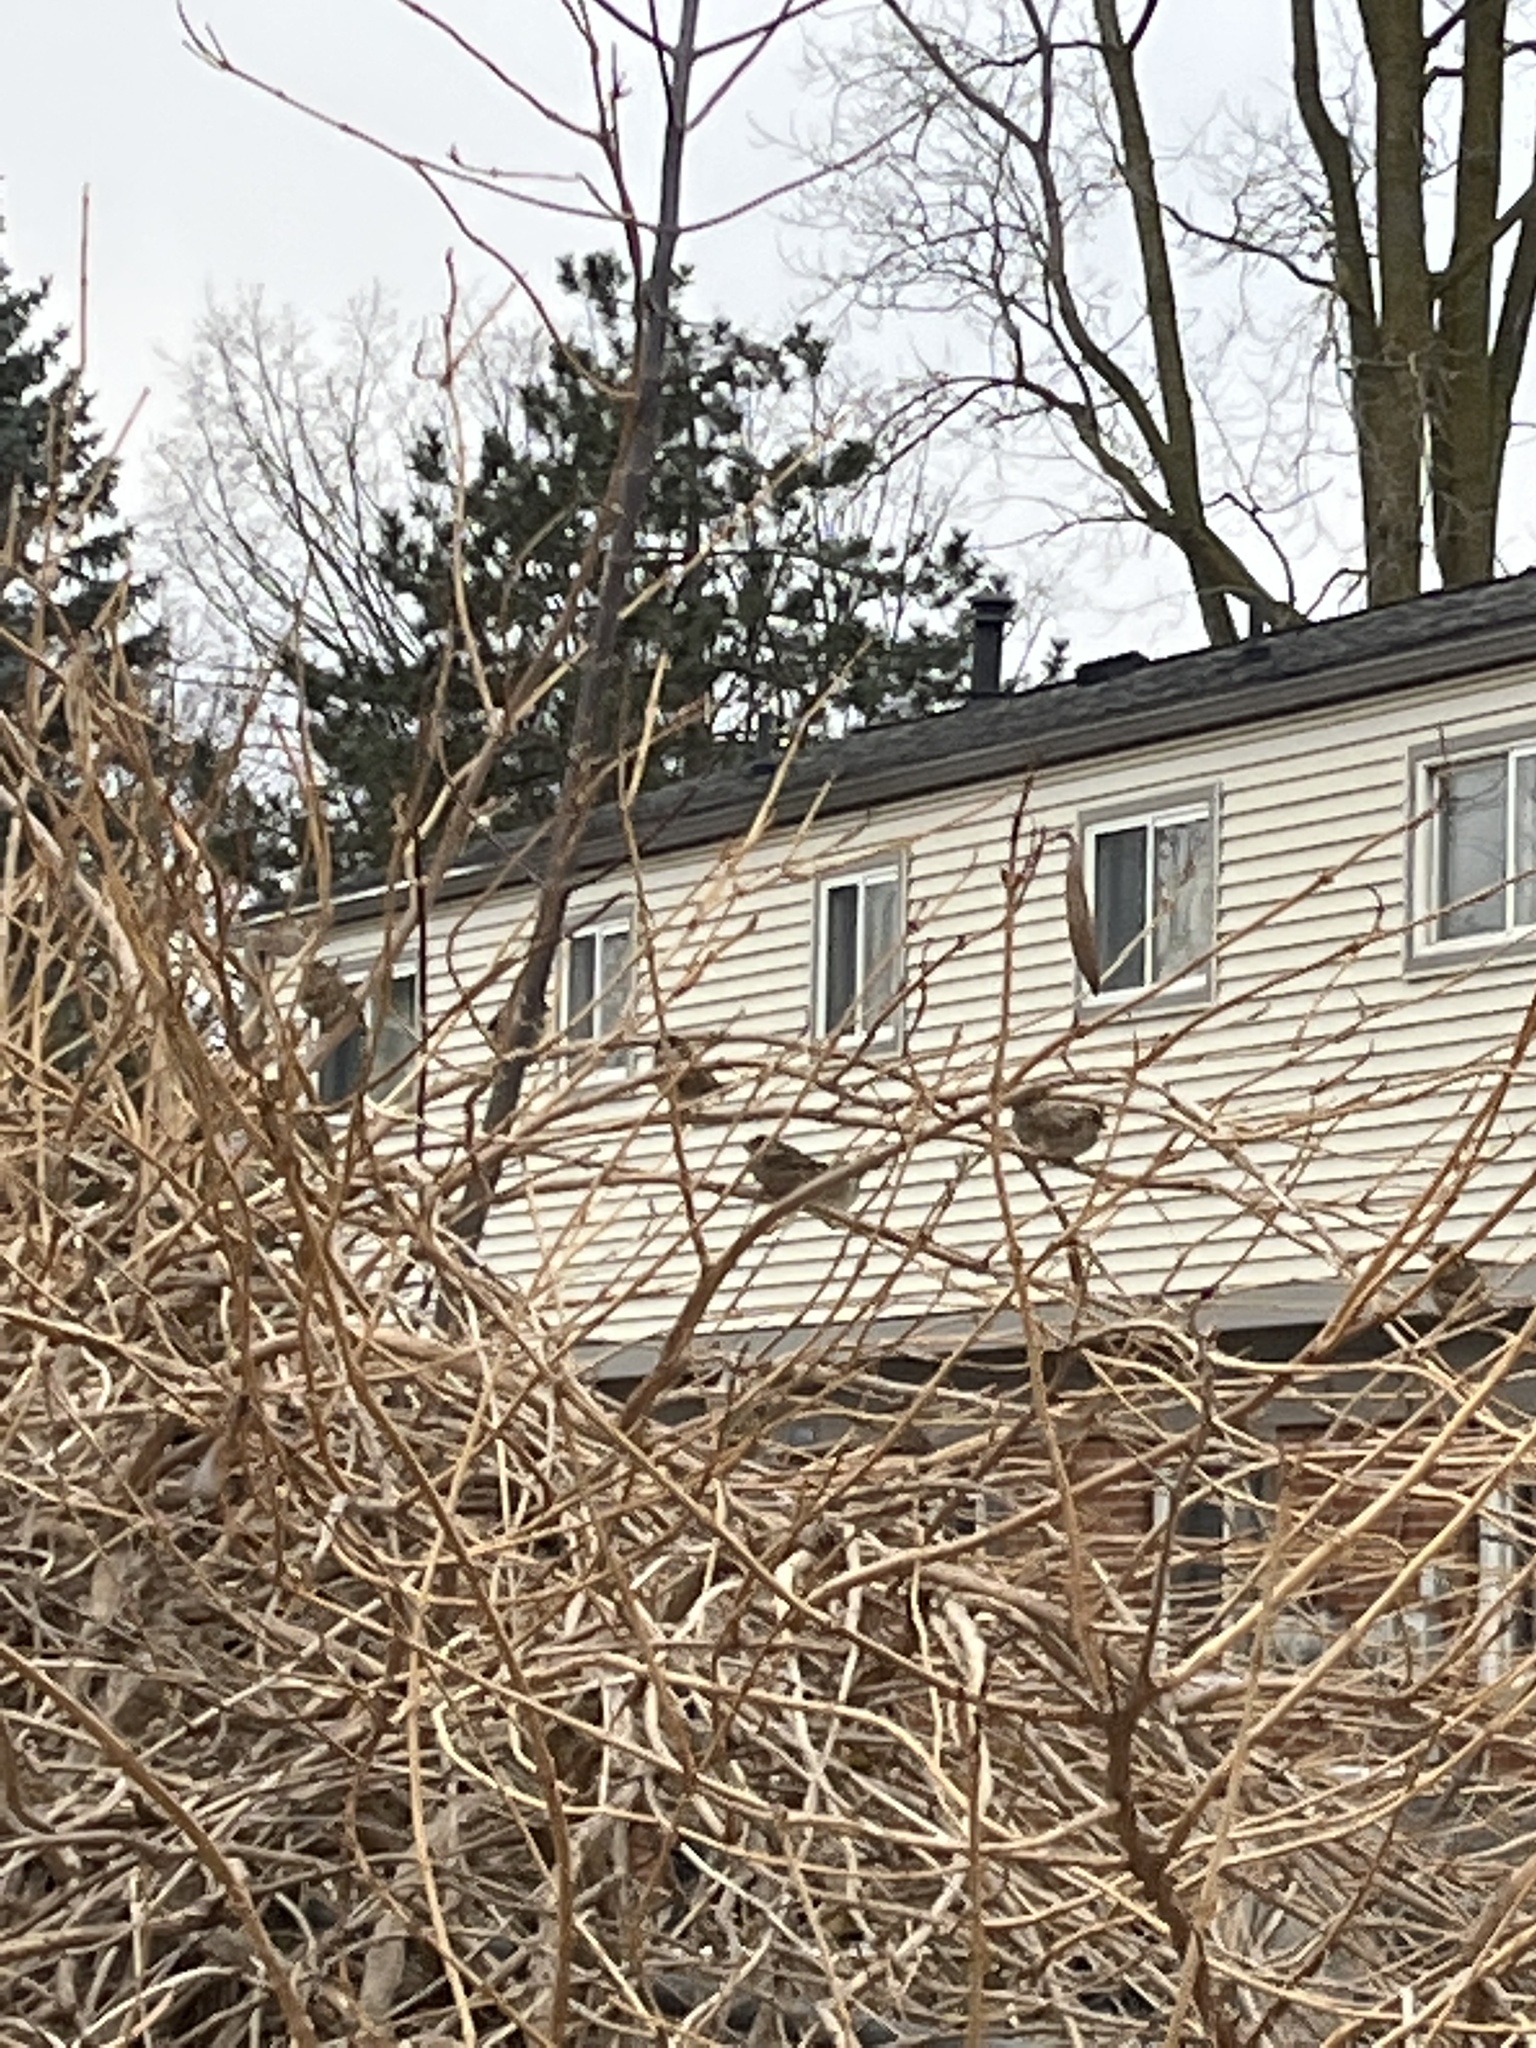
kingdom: Animalia
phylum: Chordata
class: Aves
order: Passeriformes
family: Passeridae
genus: Passer
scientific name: Passer domesticus
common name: House sparrow
